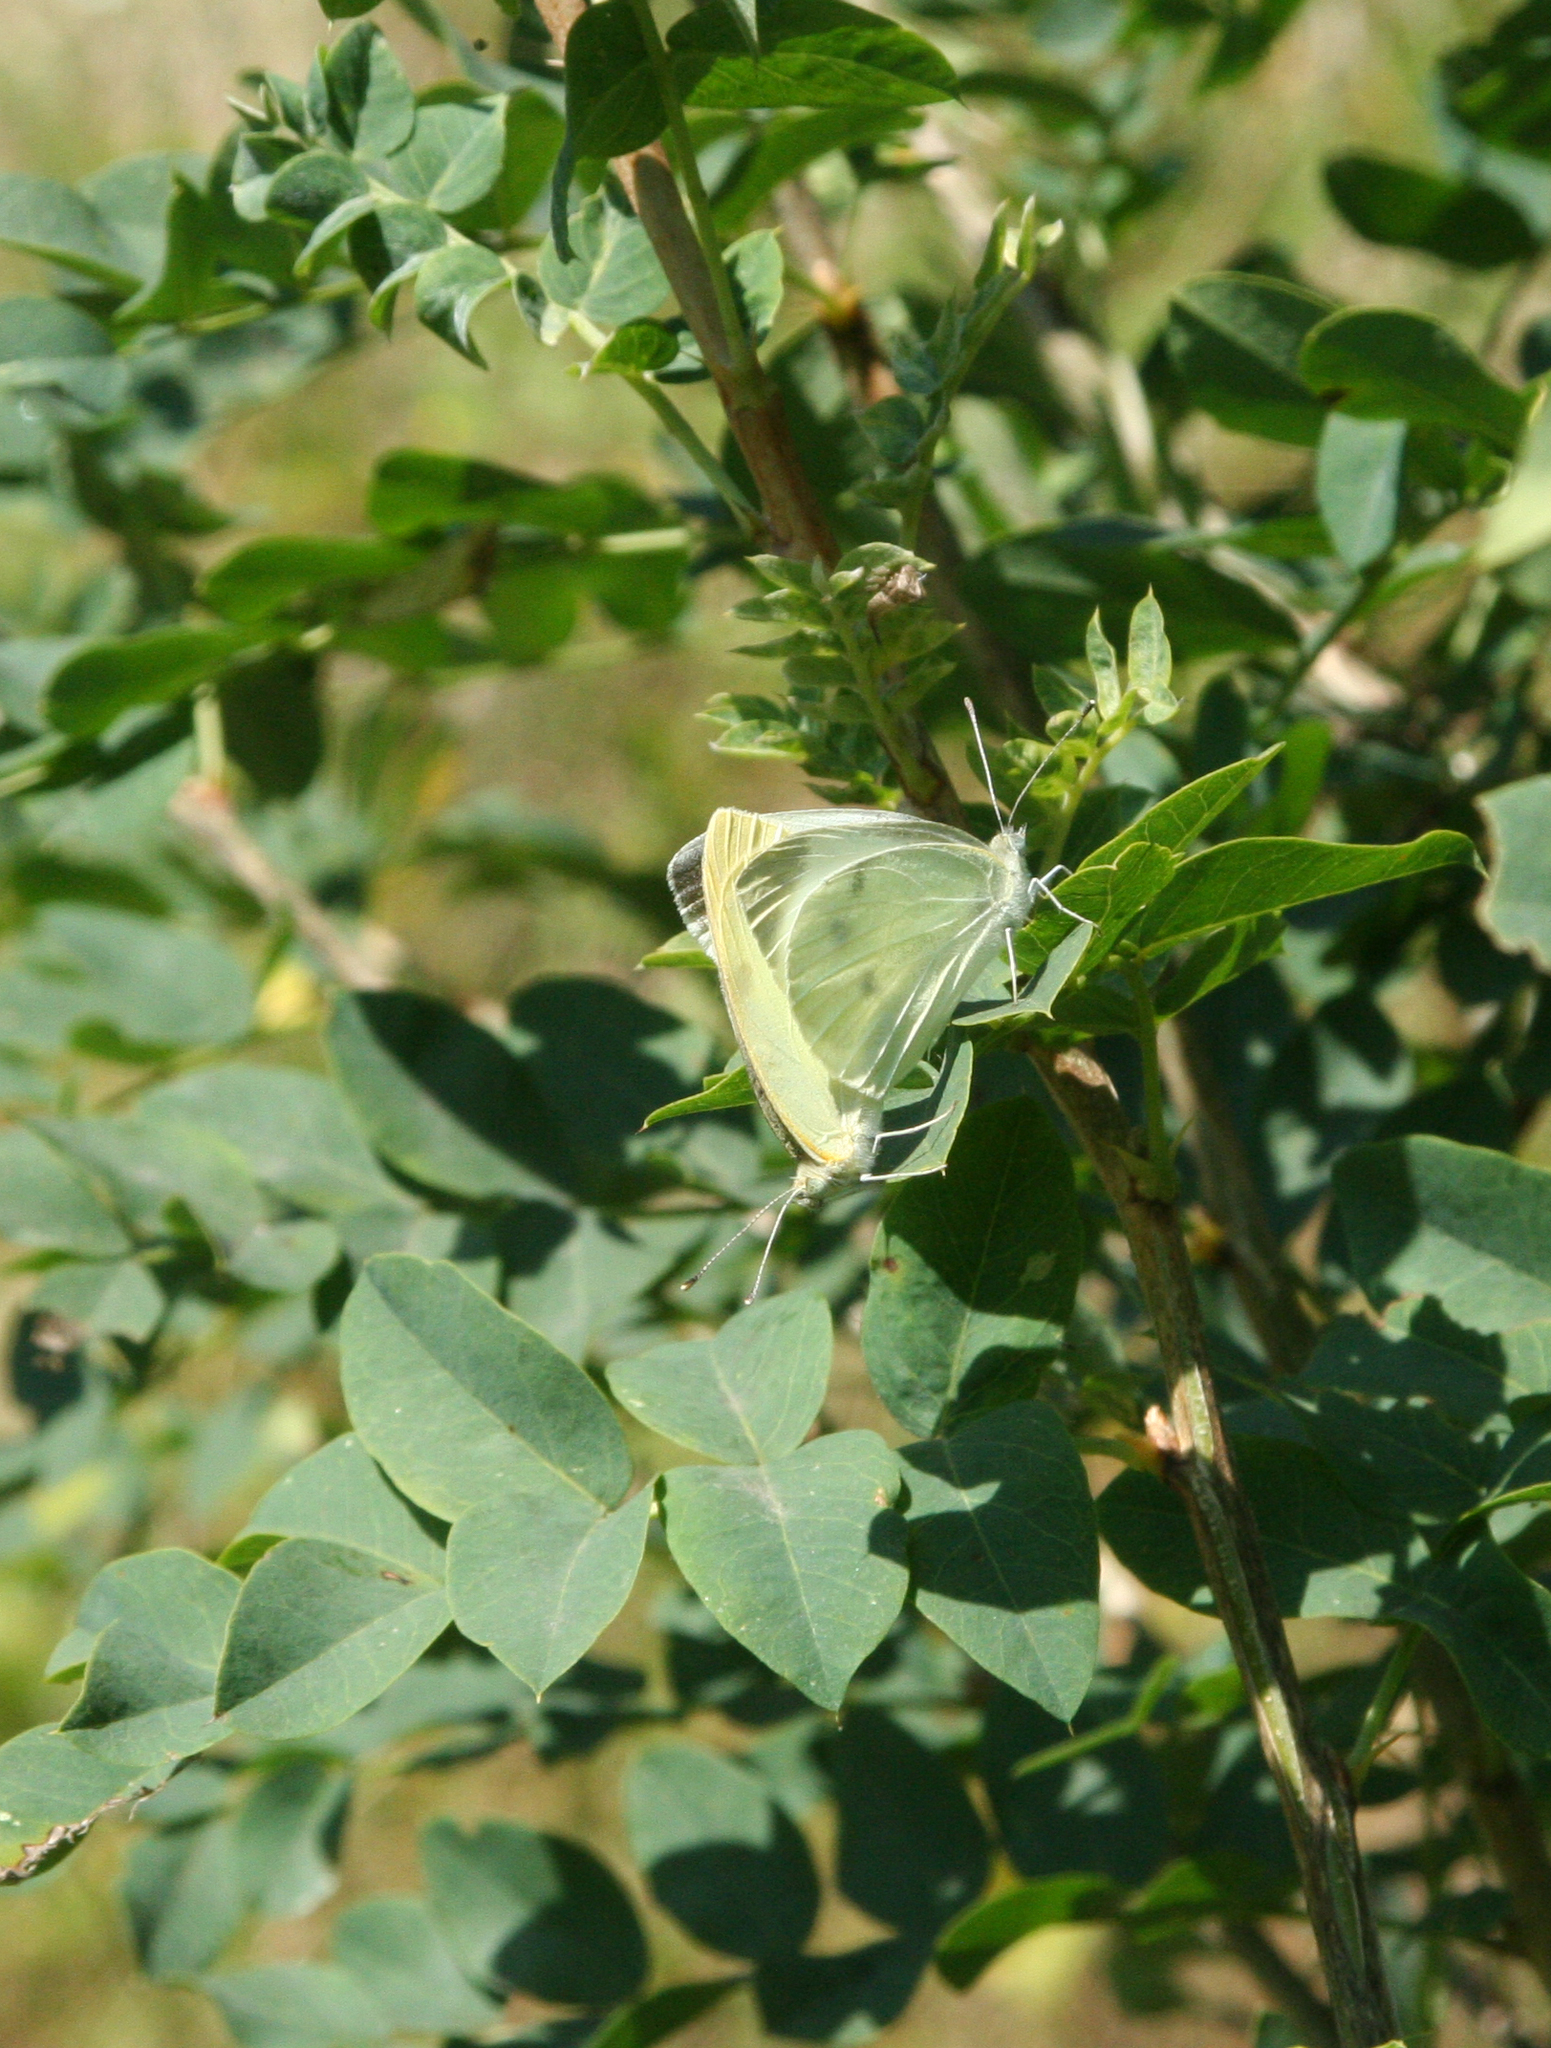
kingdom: Plantae
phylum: Tracheophyta
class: Magnoliopsida
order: Fabales
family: Fabaceae
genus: Caragana
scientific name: Caragana arborescens
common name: Siberian peashrub
